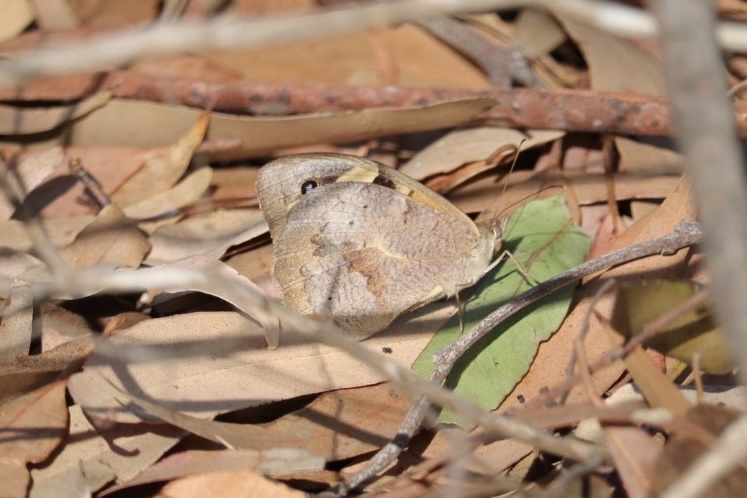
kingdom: Animalia
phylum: Arthropoda
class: Insecta
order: Lepidoptera
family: Nymphalidae
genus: Heteronympha
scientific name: Heteronympha merope
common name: Common brown
